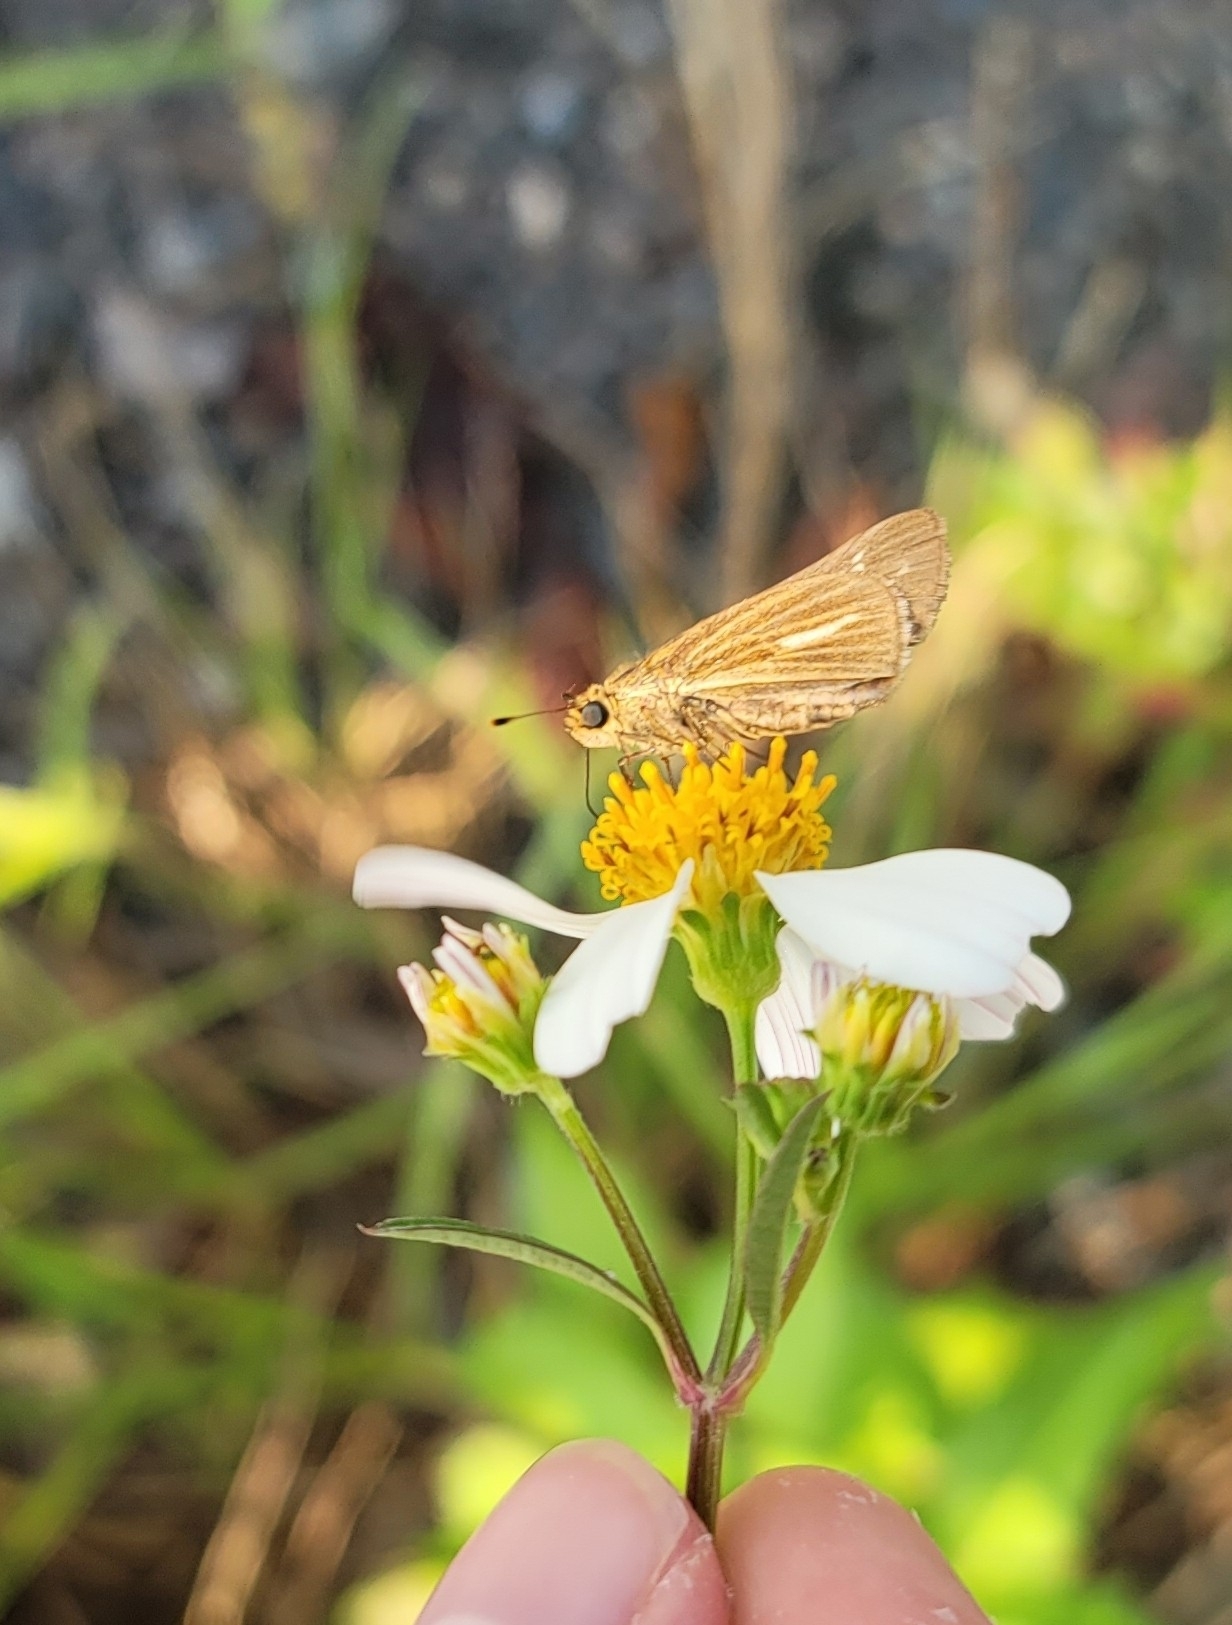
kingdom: Animalia
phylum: Arthropoda
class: Insecta
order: Lepidoptera
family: Hesperiidae
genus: Panoquina
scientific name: Panoquina panoquin
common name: Salt marsh skipper
